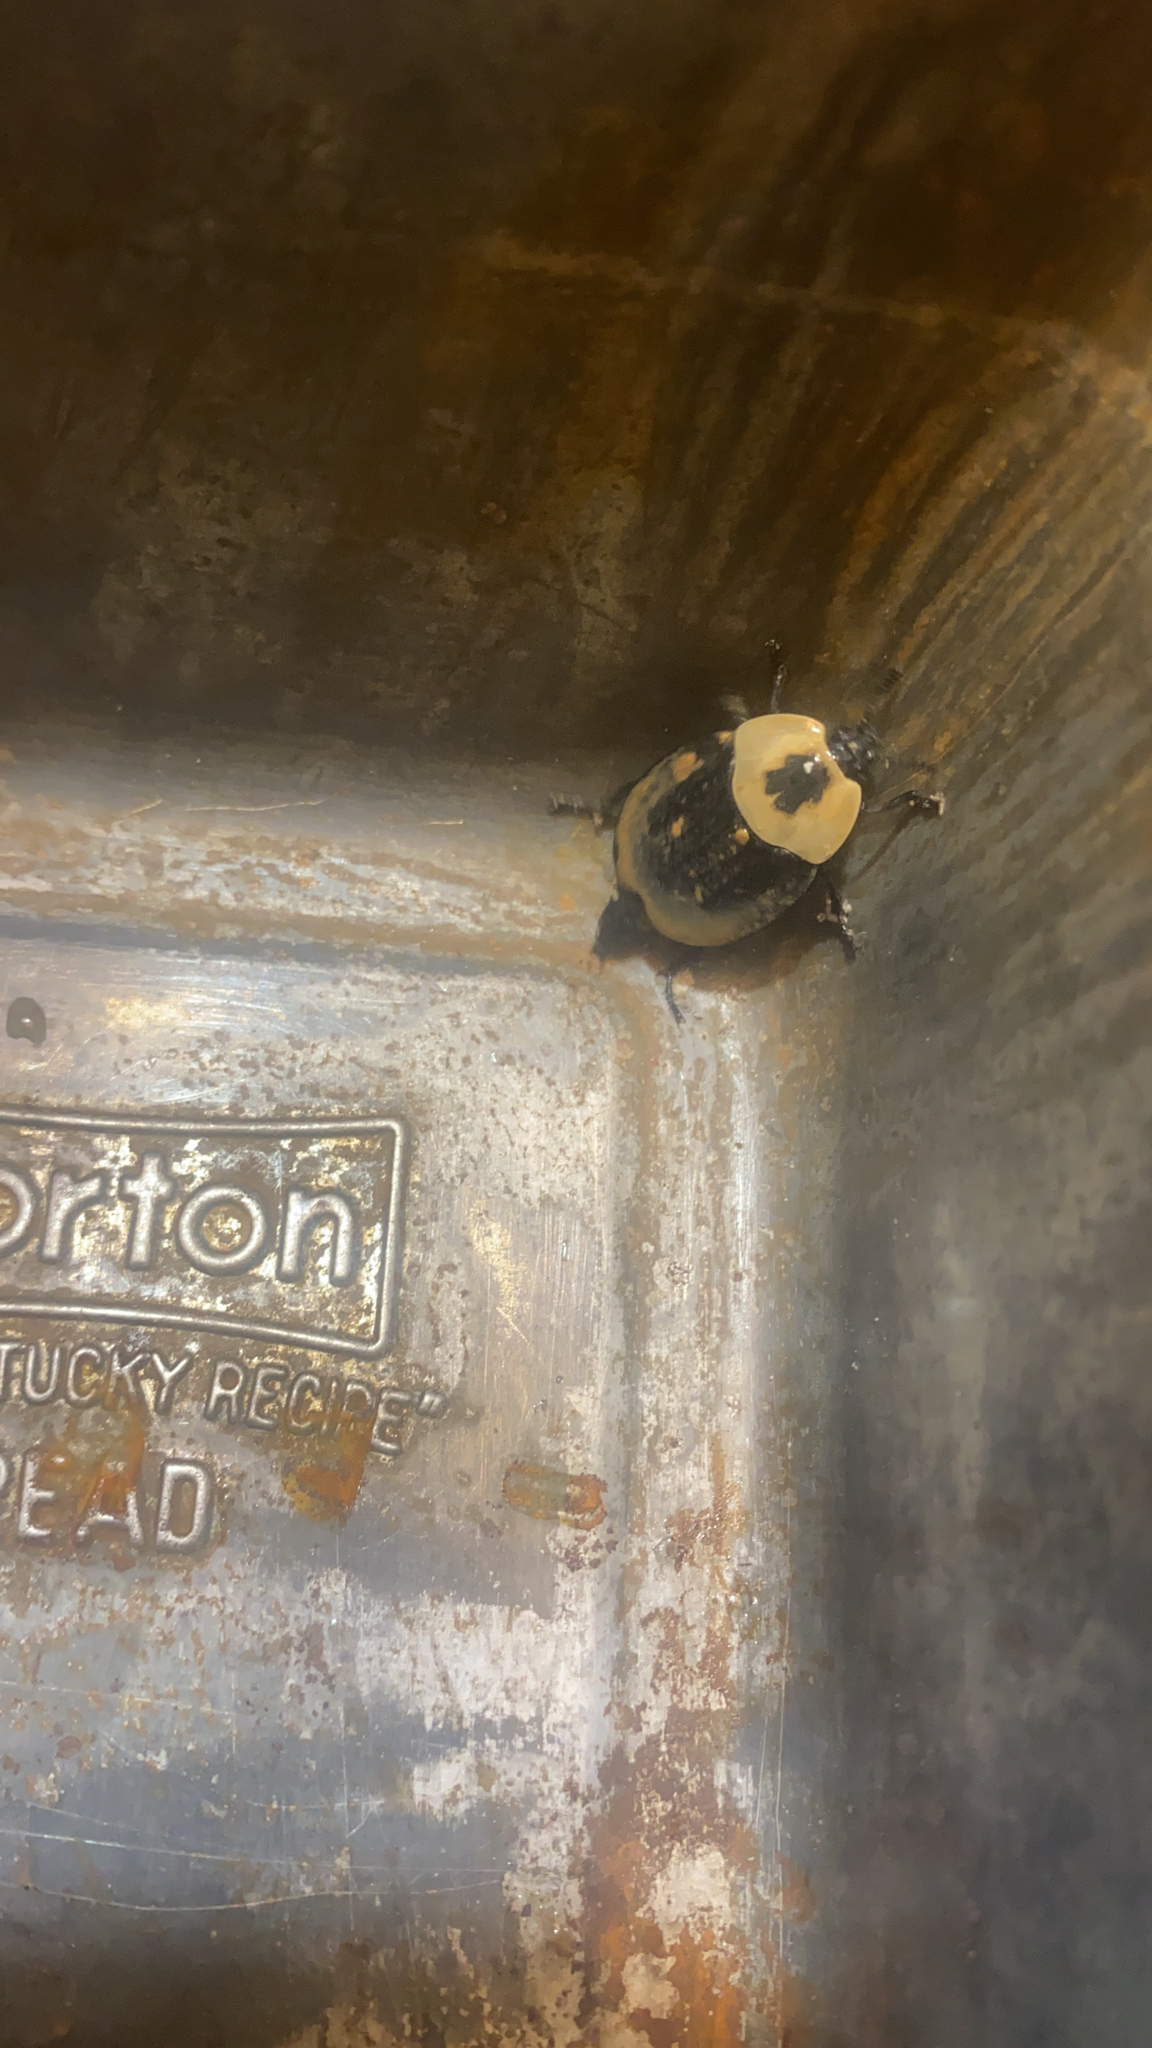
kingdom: Animalia
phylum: Arthropoda
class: Insecta
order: Coleoptera
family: Staphylinidae
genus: Necrophila
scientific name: Necrophila americana
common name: American carrion beetle
